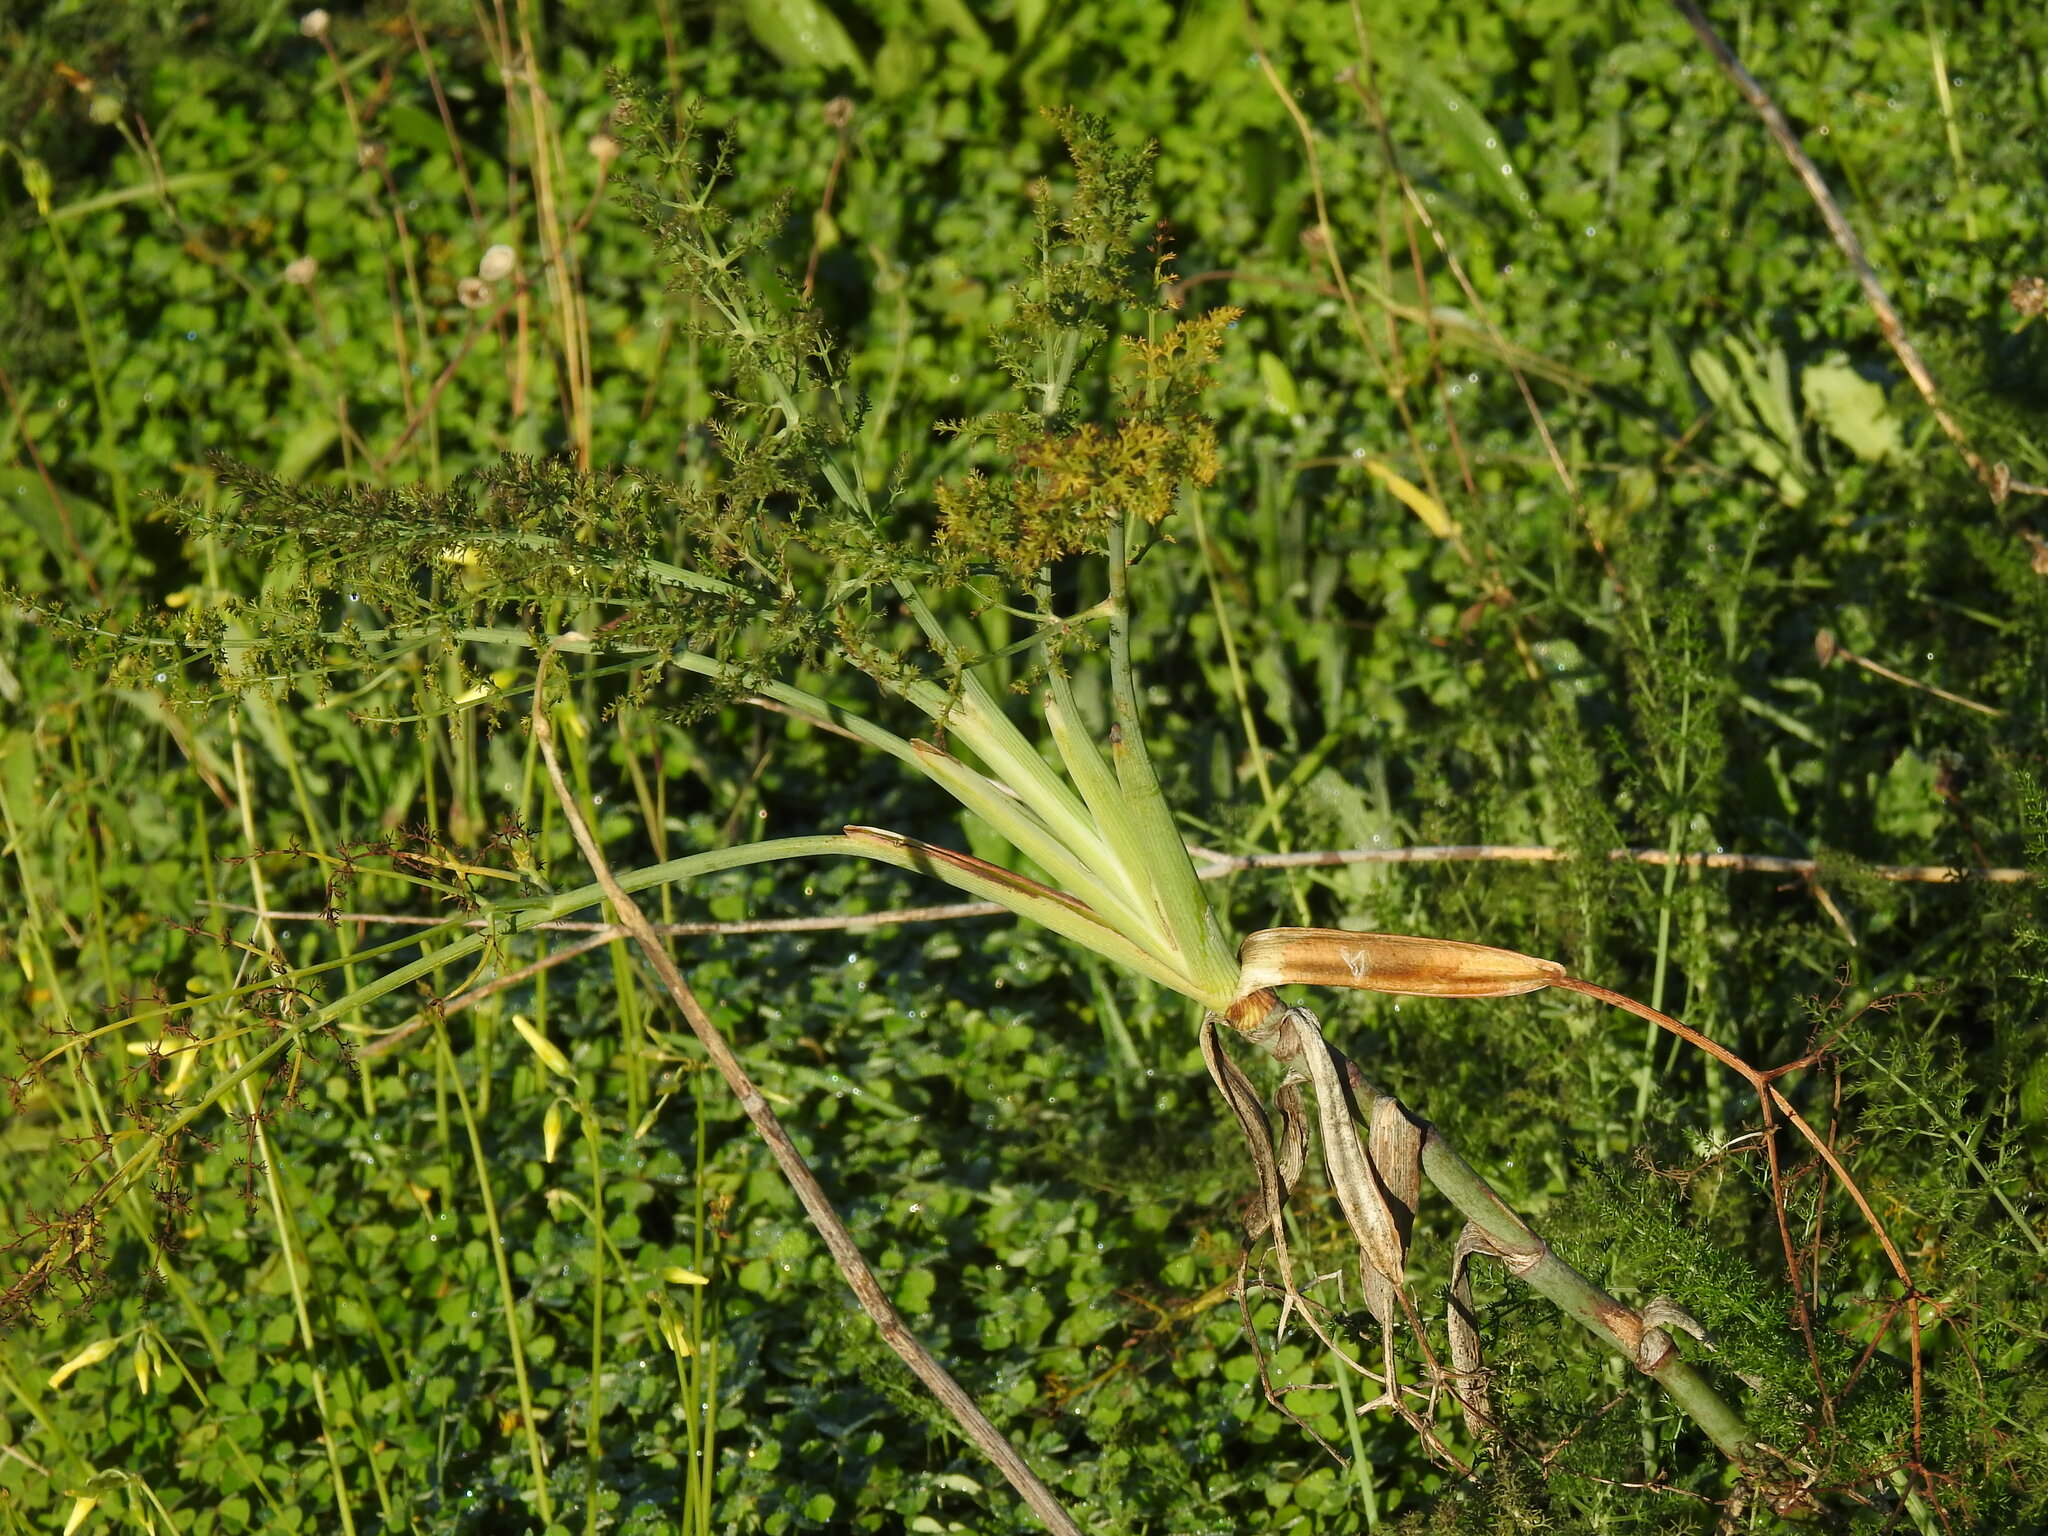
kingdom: Plantae
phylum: Tracheophyta
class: Magnoliopsida
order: Apiales
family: Apiaceae
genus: Foeniculum
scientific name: Foeniculum vulgare
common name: Fennel
